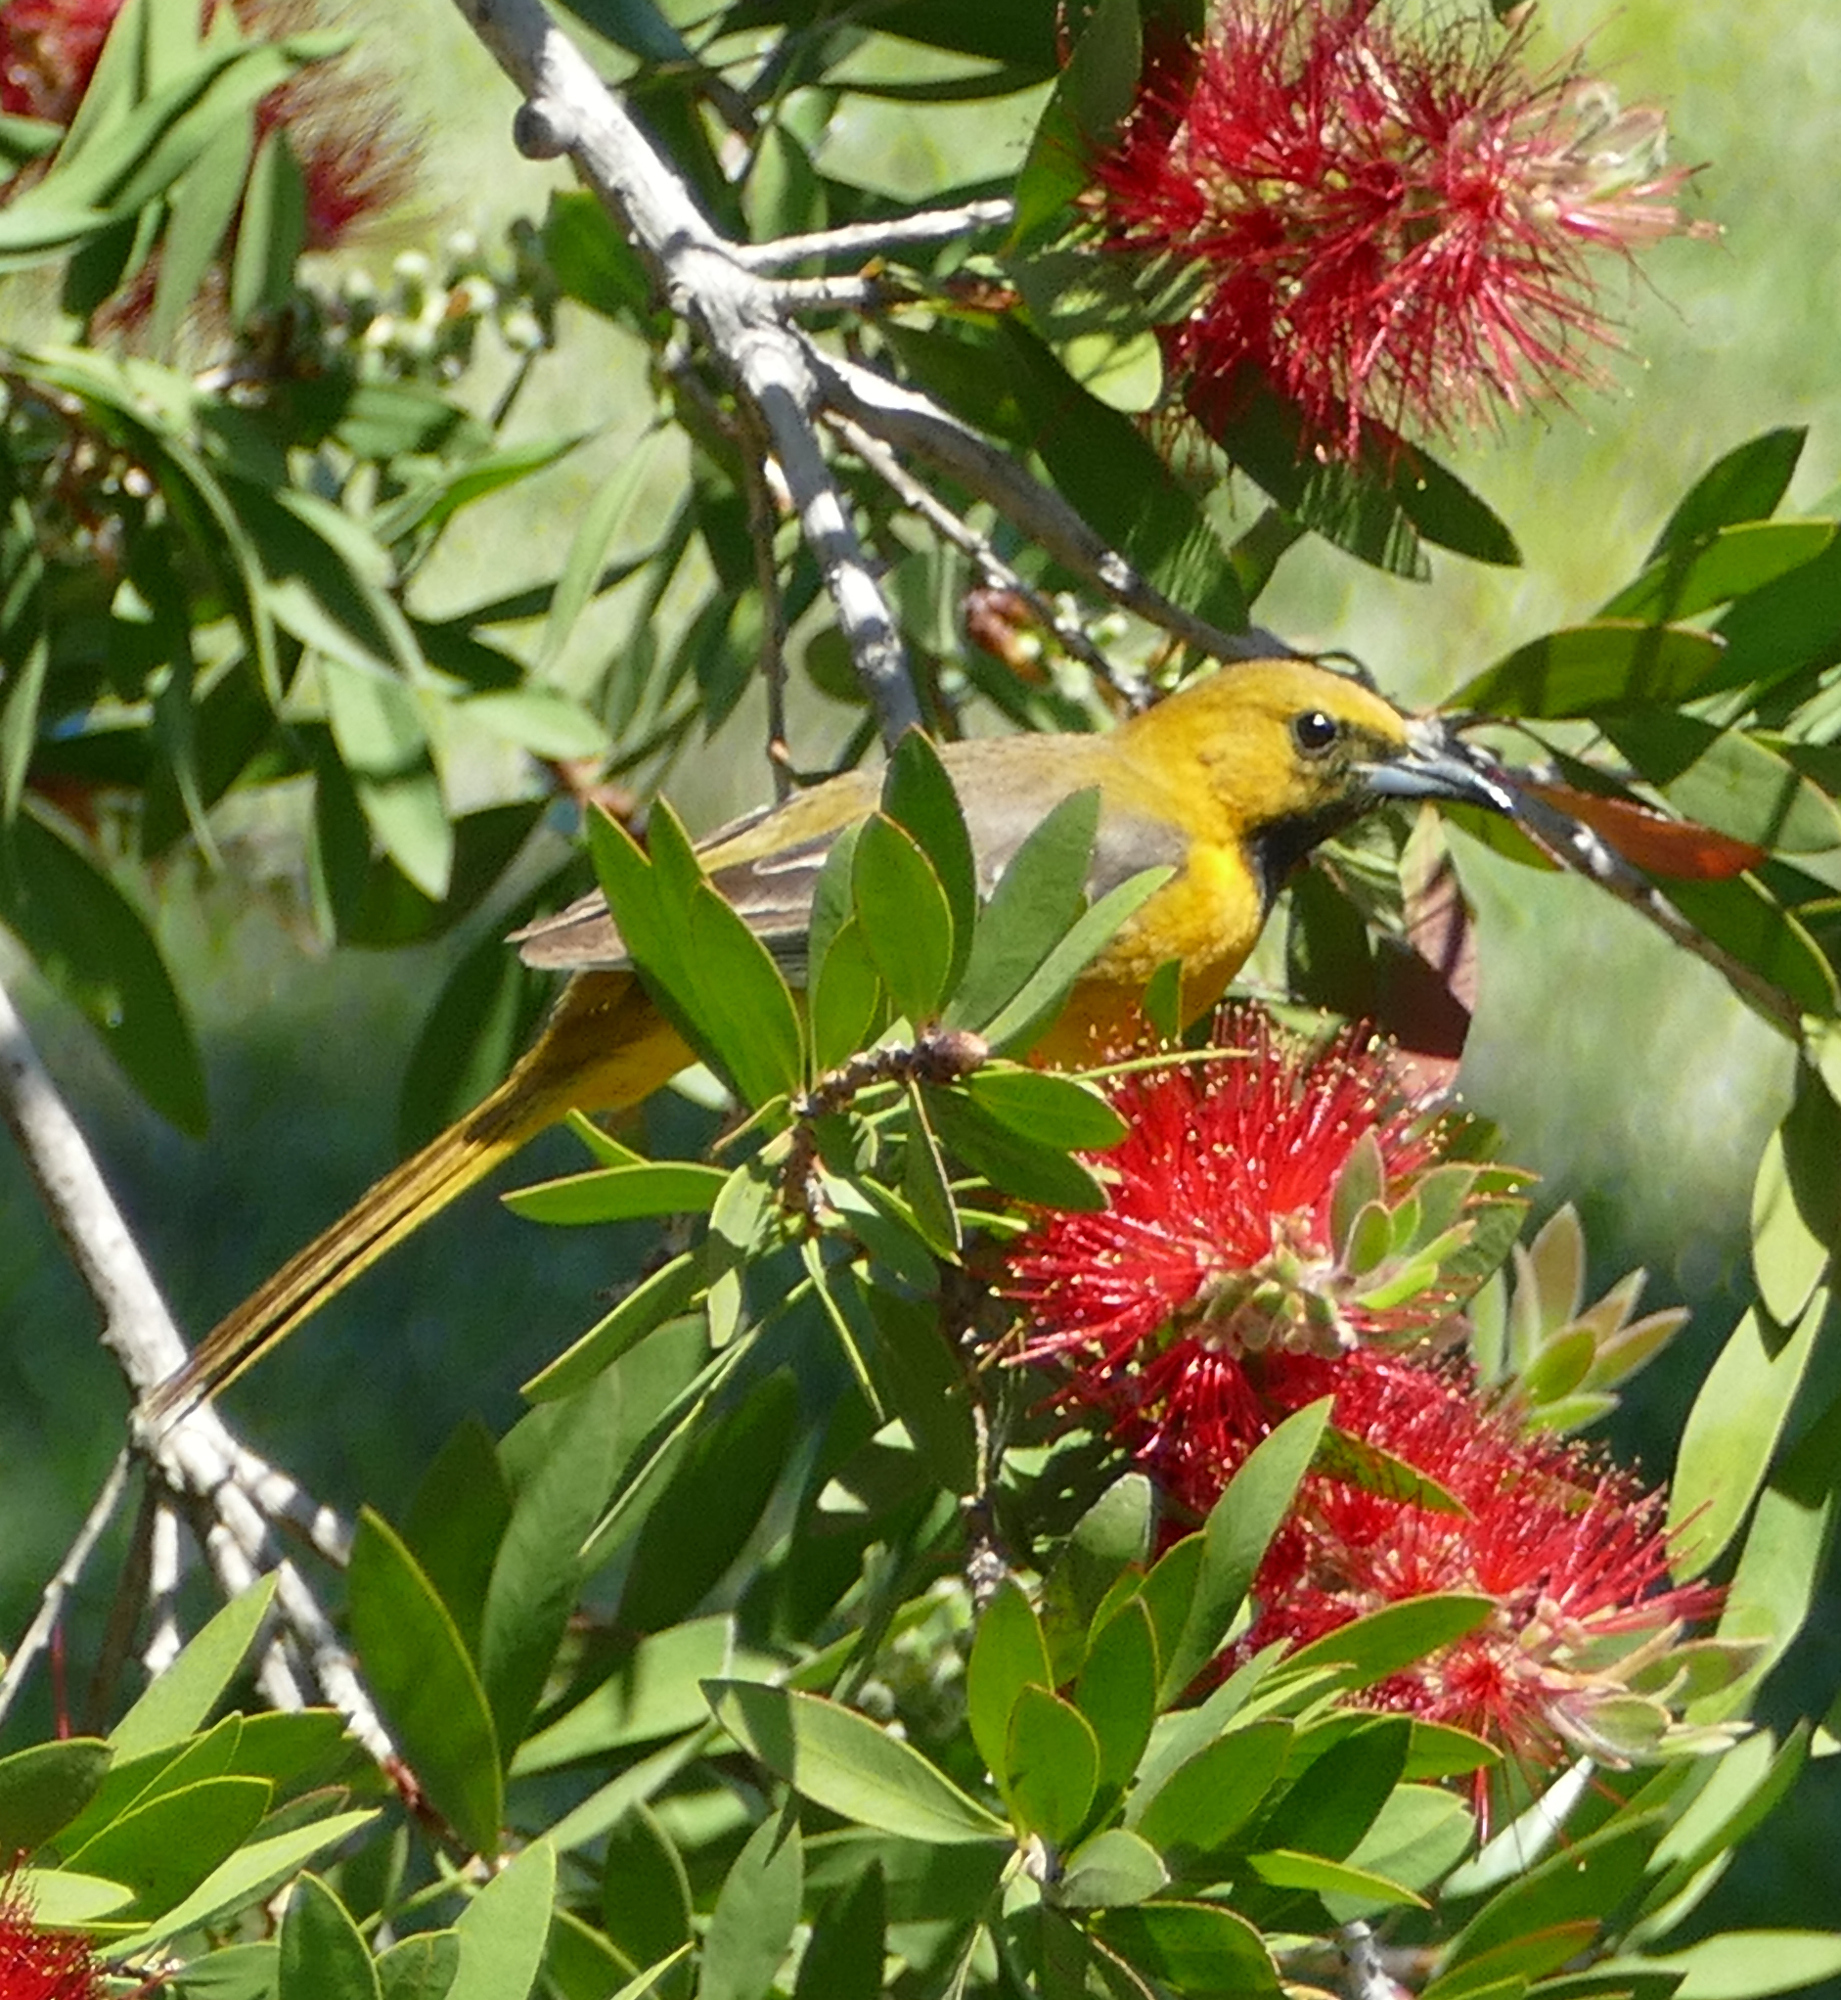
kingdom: Animalia
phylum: Chordata
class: Aves
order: Passeriformes
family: Icteridae
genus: Icterus
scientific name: Icterus spurius
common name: Orchard oriole
